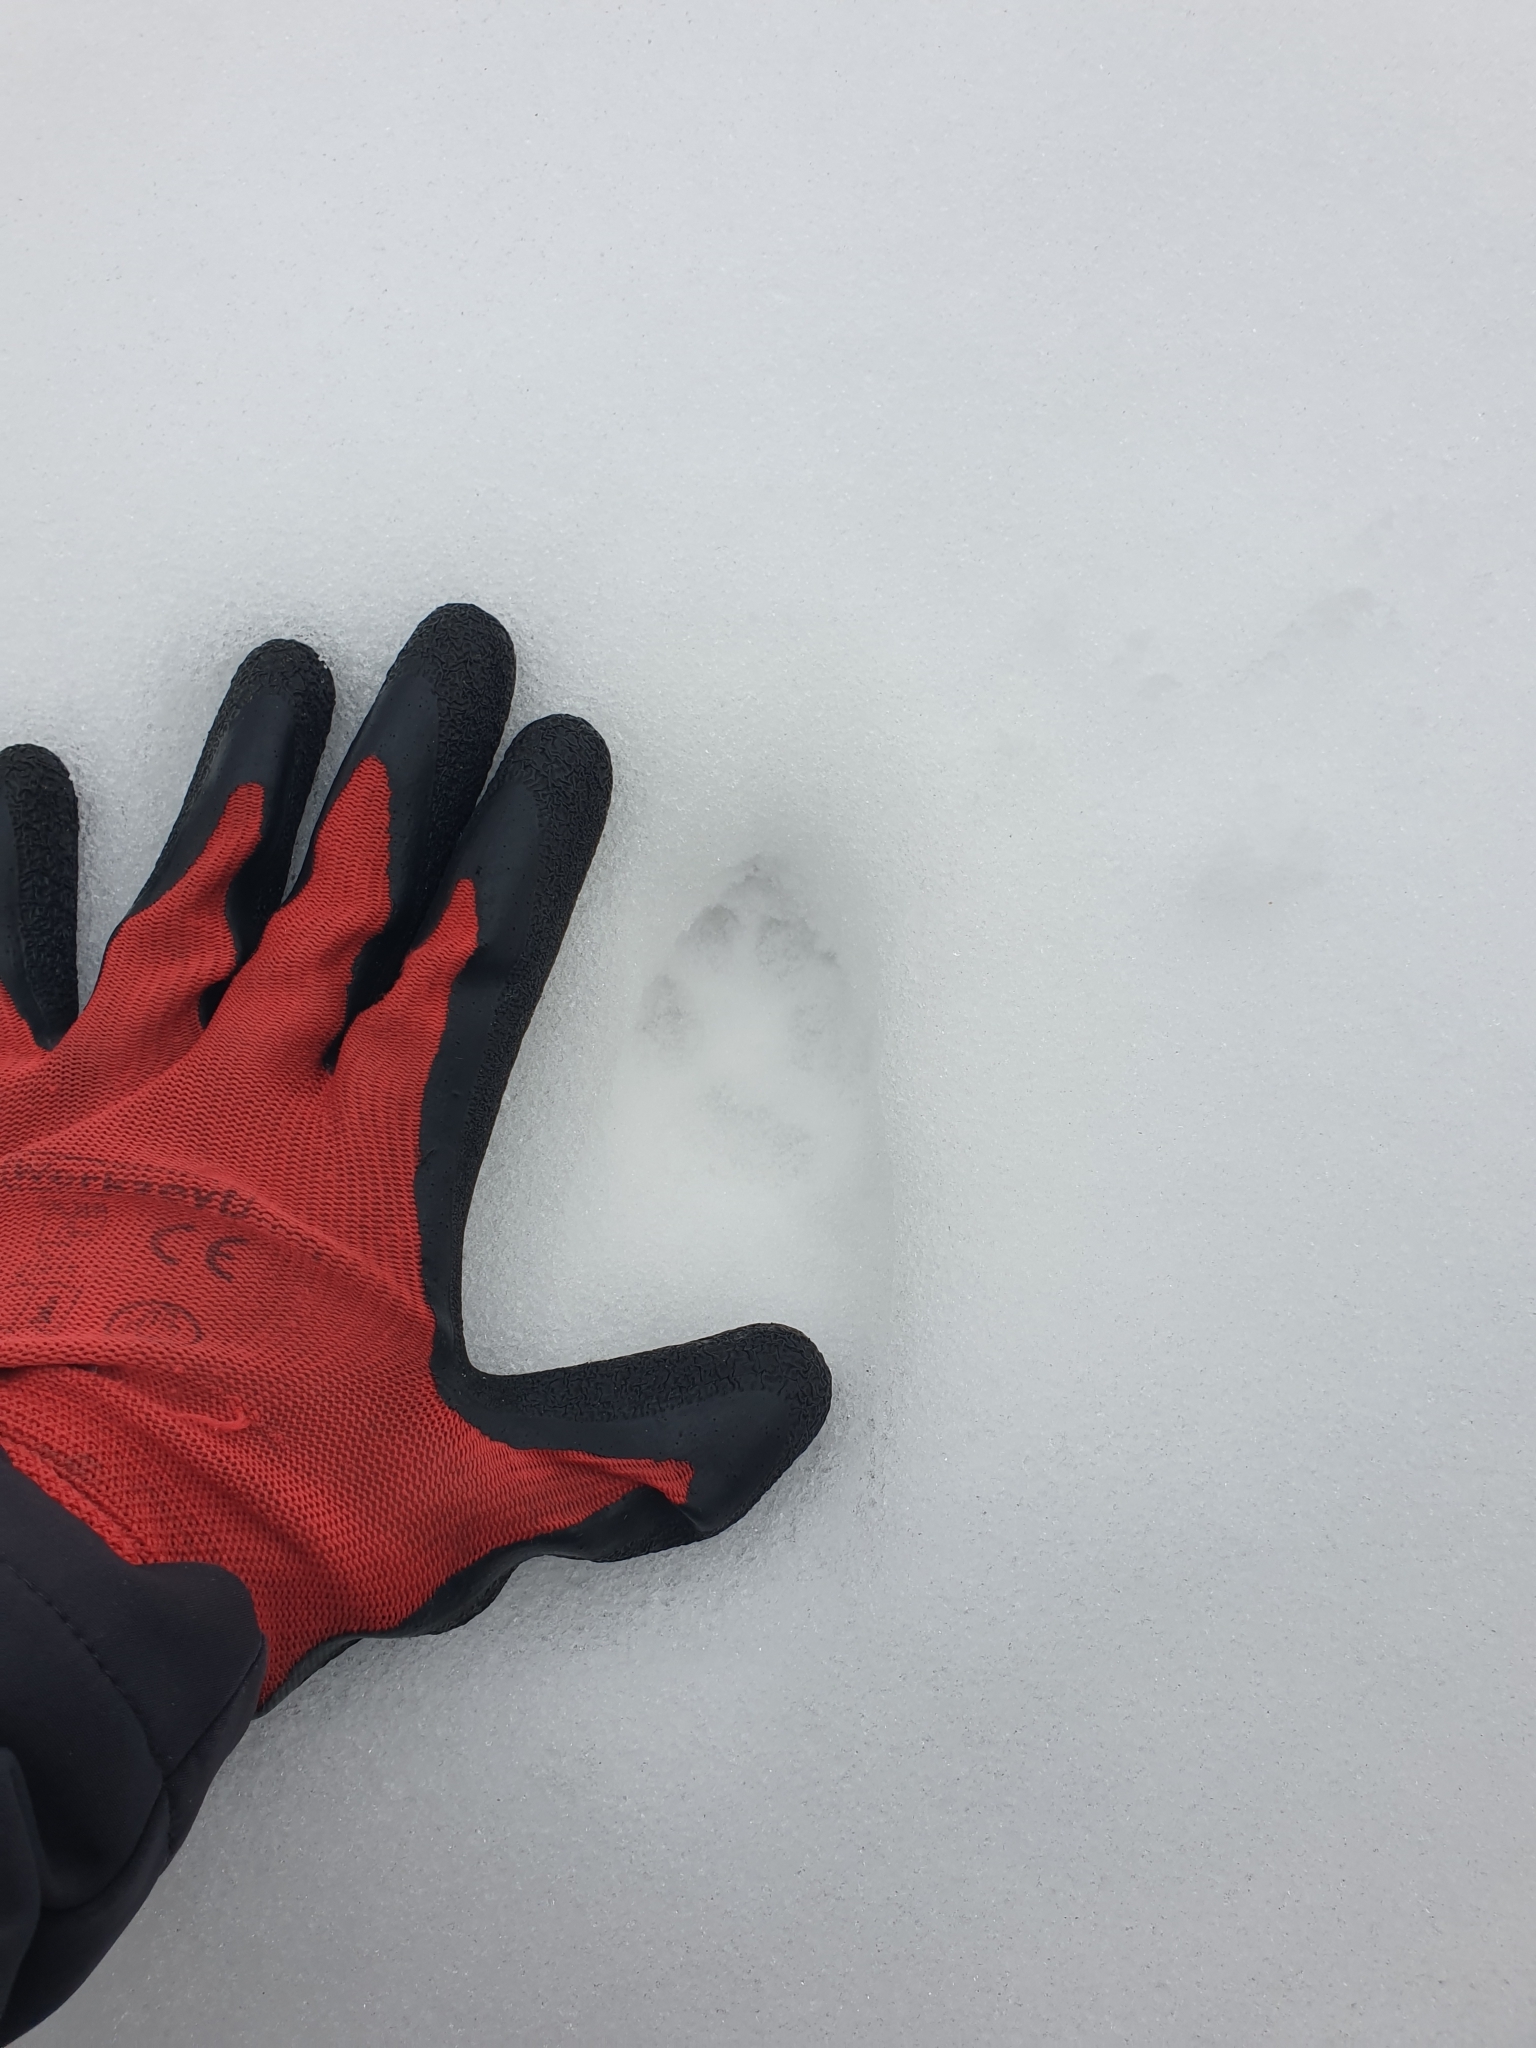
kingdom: Animalia
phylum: Chordata
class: Mammalia
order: Carnivora
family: Canidae
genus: Vulpes
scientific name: Vulpes vulpes
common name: Red fox
